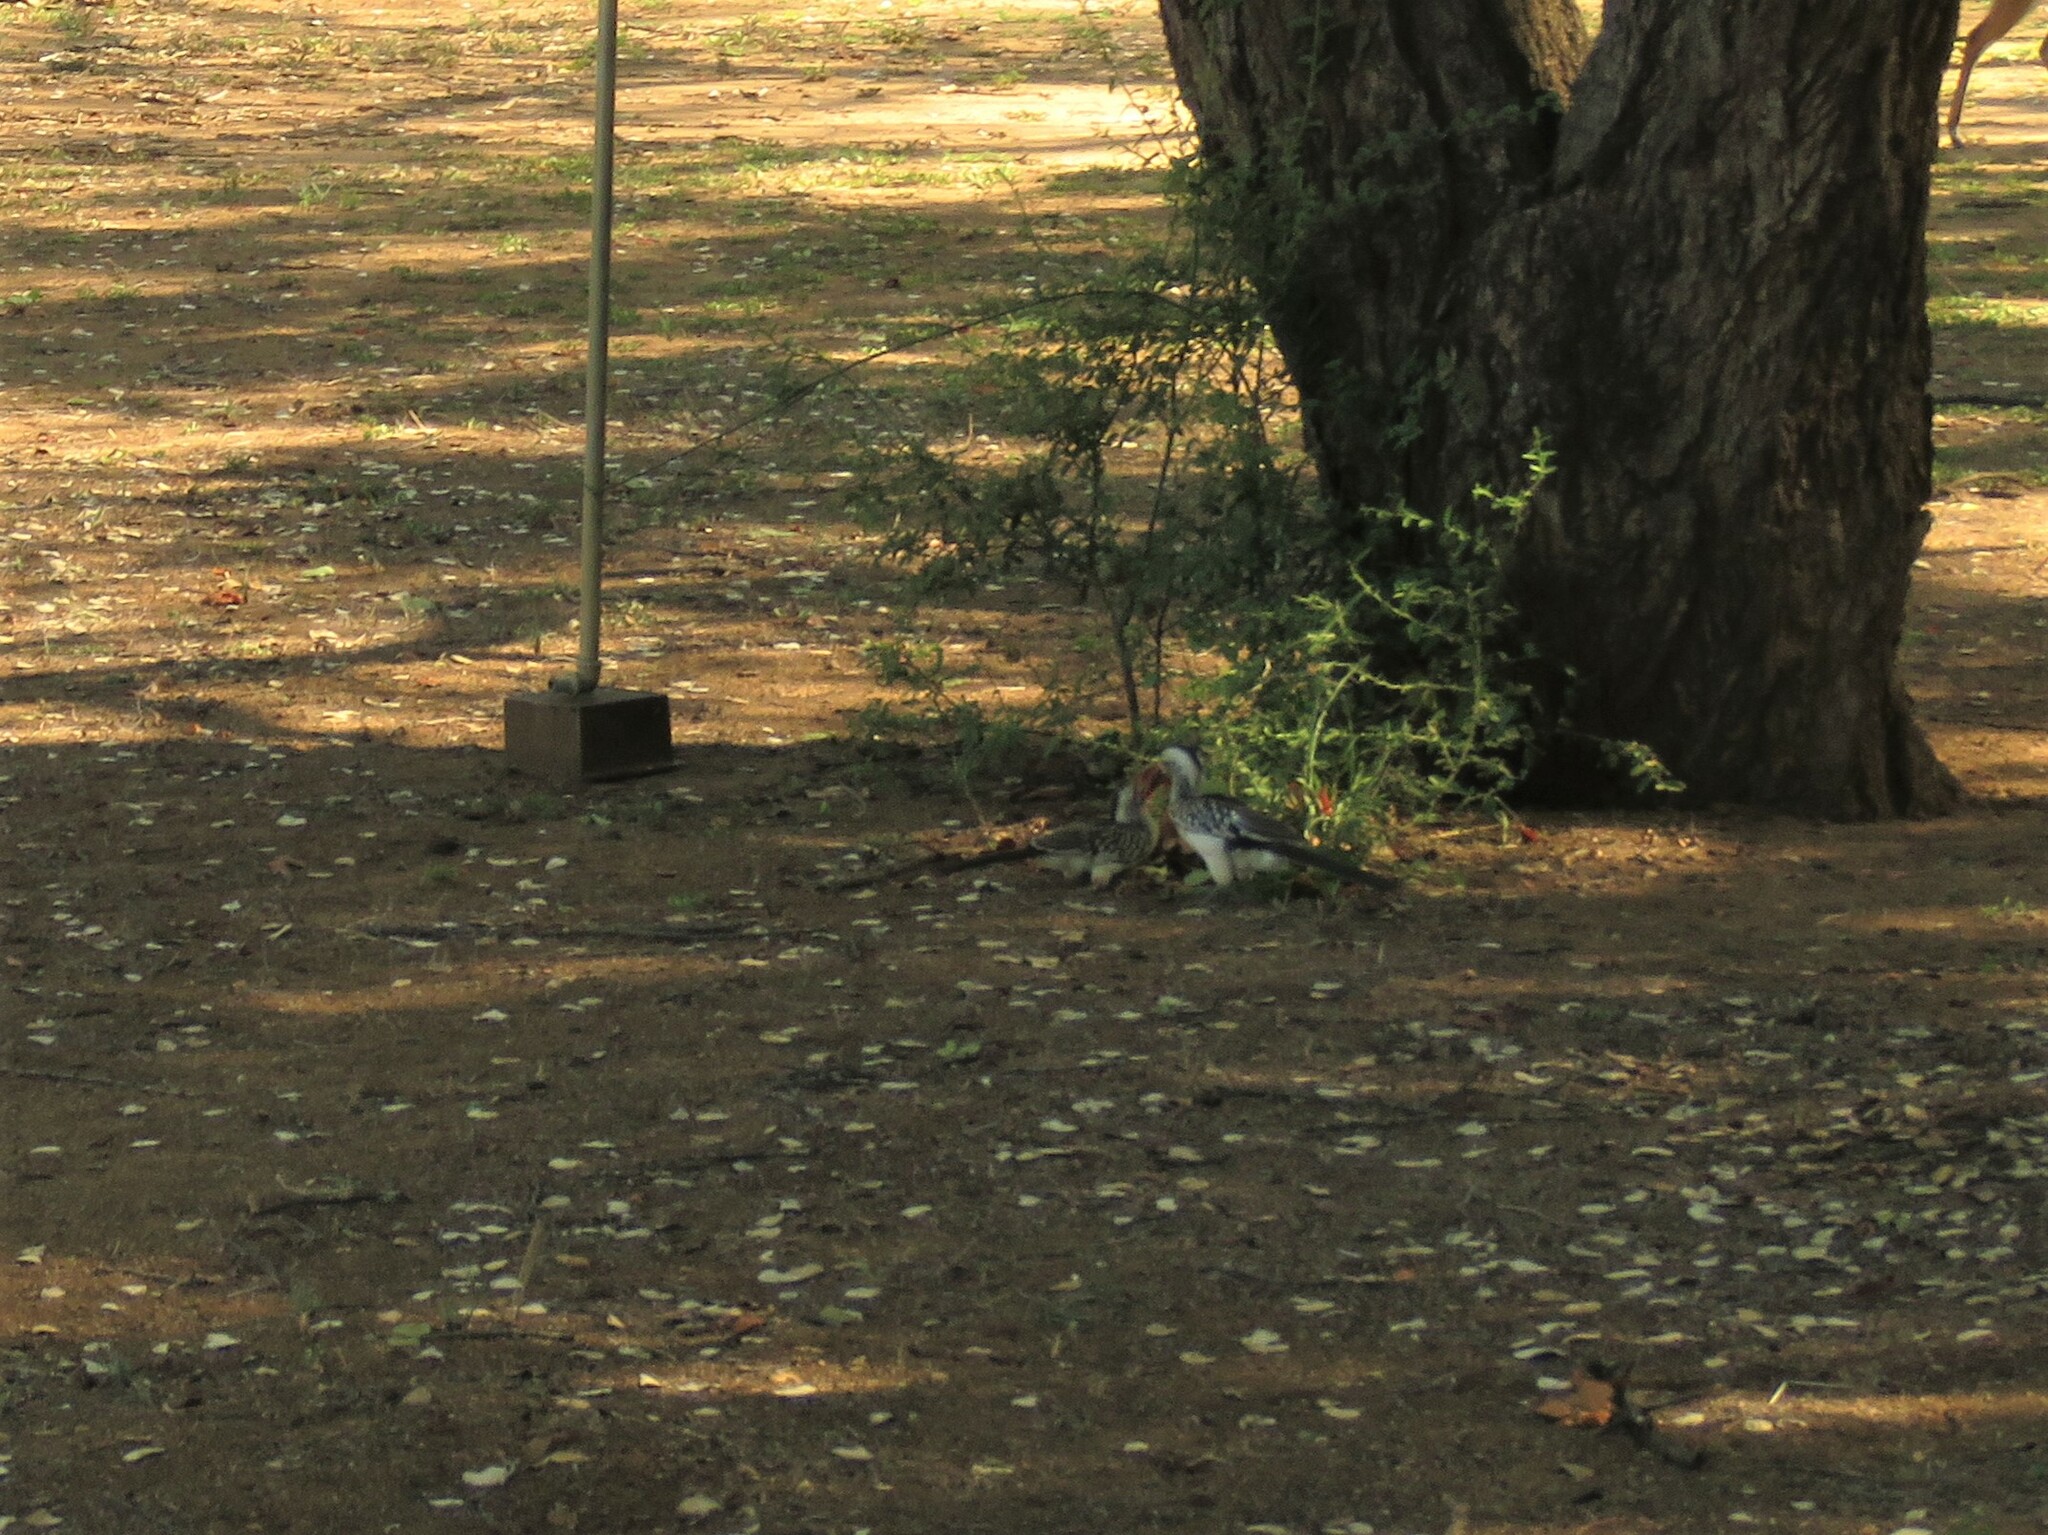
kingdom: Animalia
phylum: Chordata
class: Aves
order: Bucerotiformes
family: Bucerotidae
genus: Tockus
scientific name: Tockus rufirostris
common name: Southern red-billed hornbill
